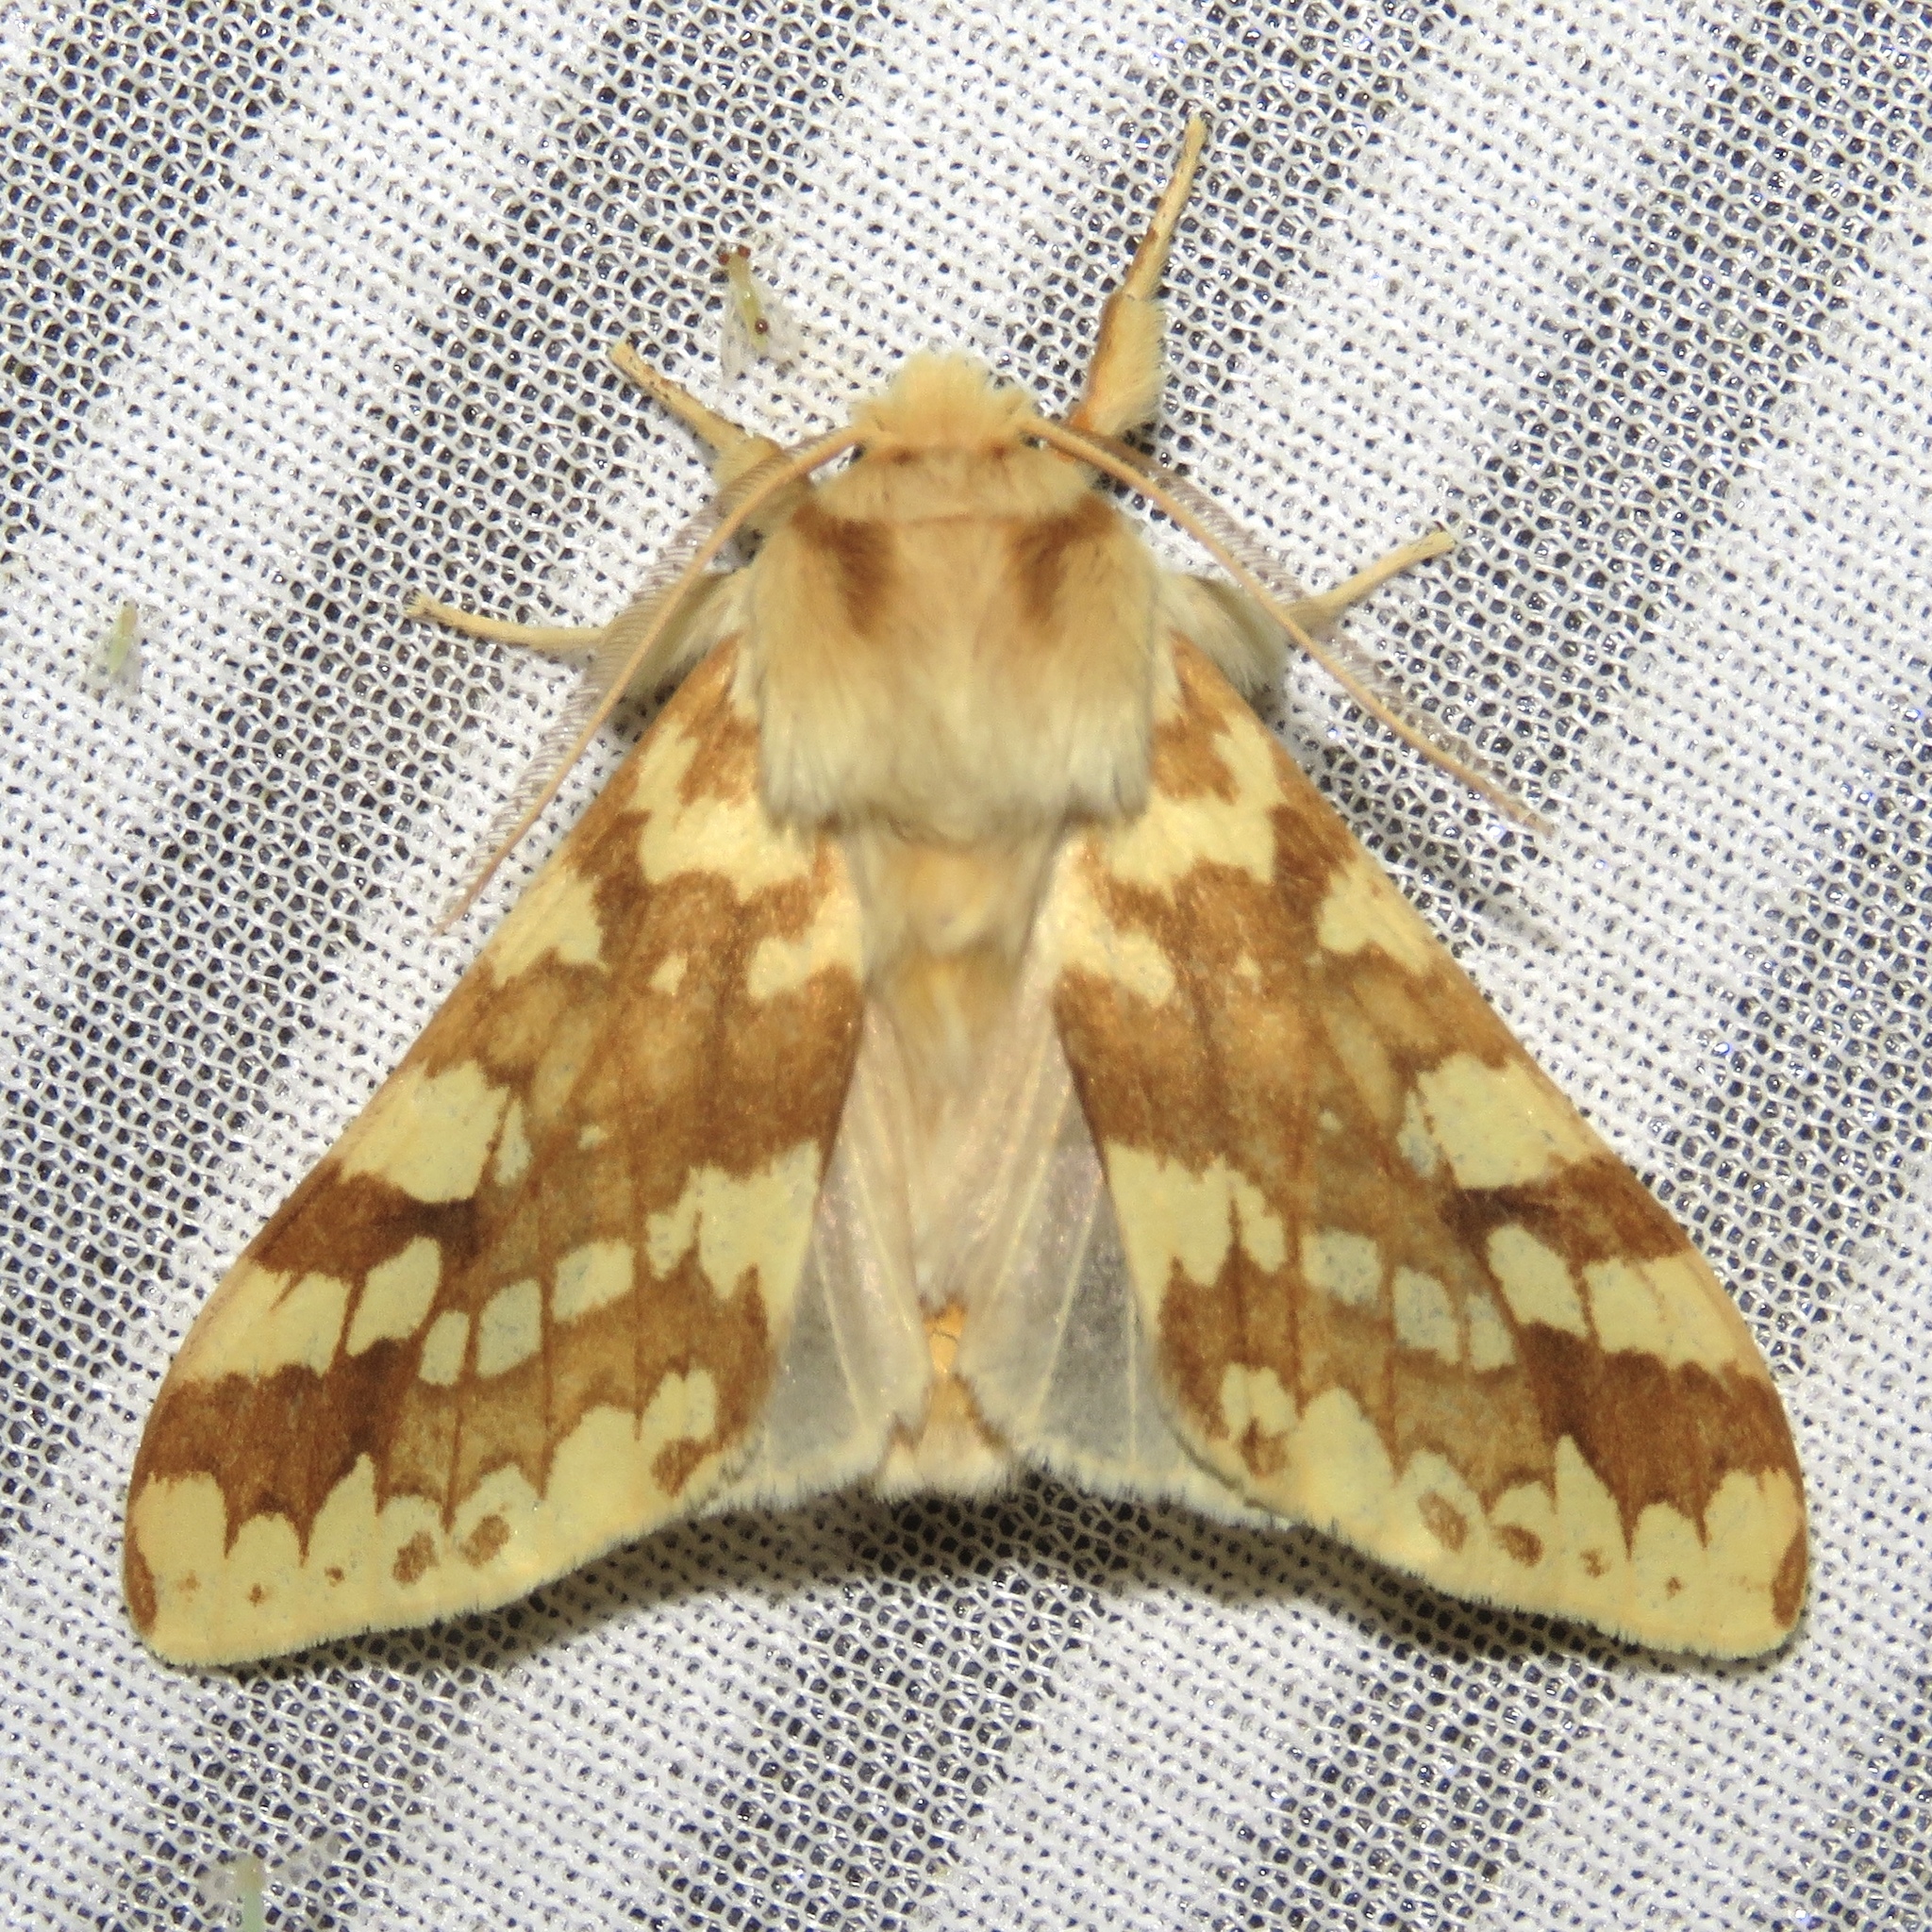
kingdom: Animalia
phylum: Arthropoda
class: Insecta
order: Lepidoptera
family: Erebidae
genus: Lophocampa
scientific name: Lophocampa maculata
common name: Spotted tussock moth
